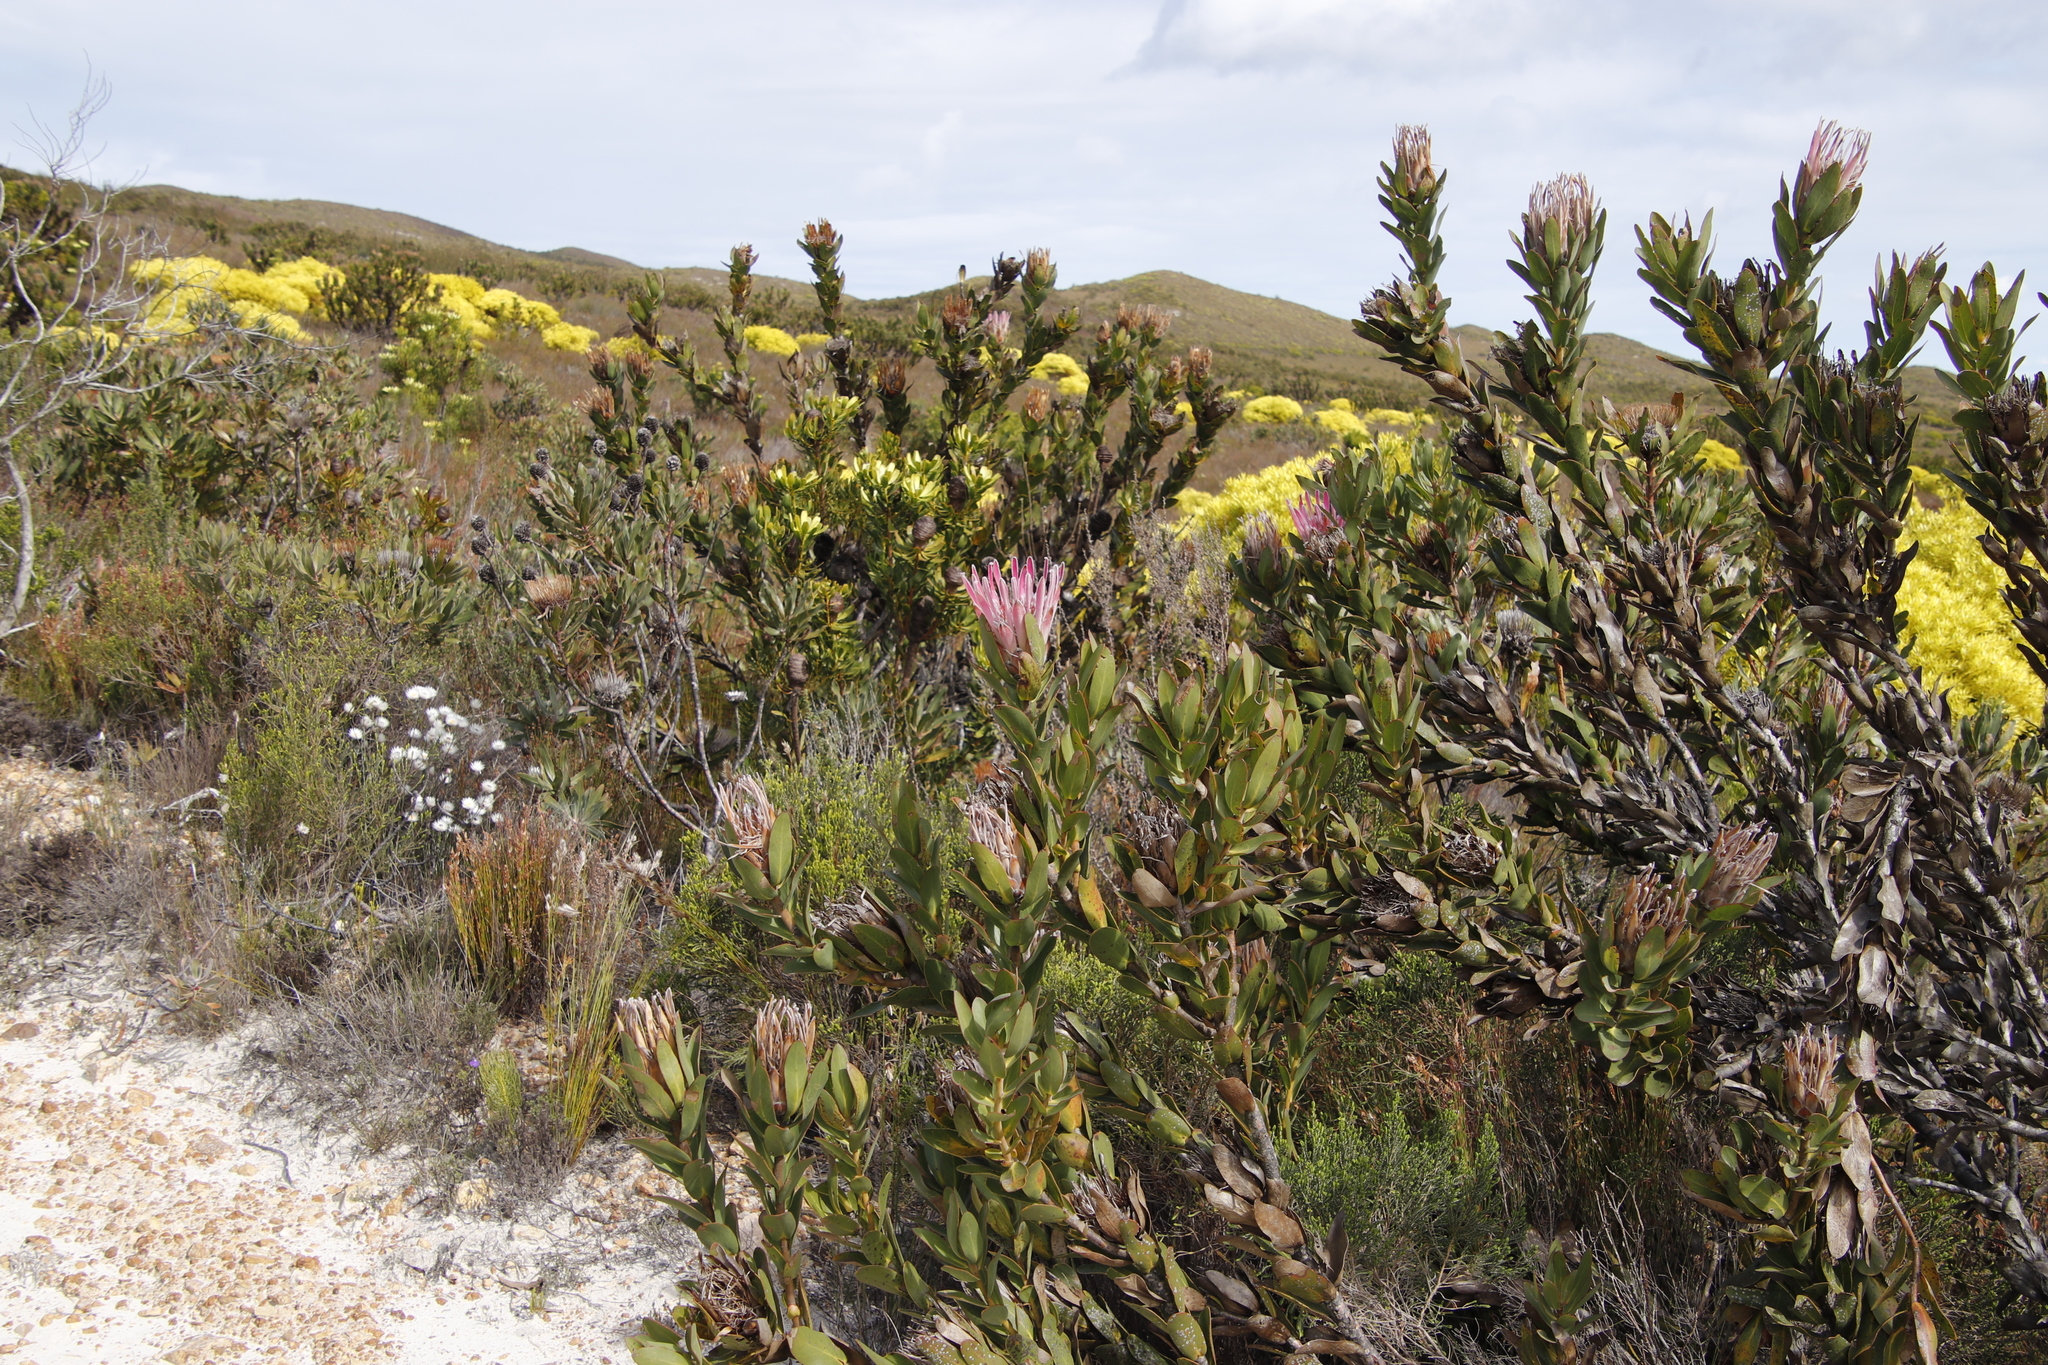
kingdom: Plantae
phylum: Tracheophyta
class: Magnoliopsida
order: Proteales
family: Proteaceae
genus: Protea
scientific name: Protea compacta
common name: Bot river protea
